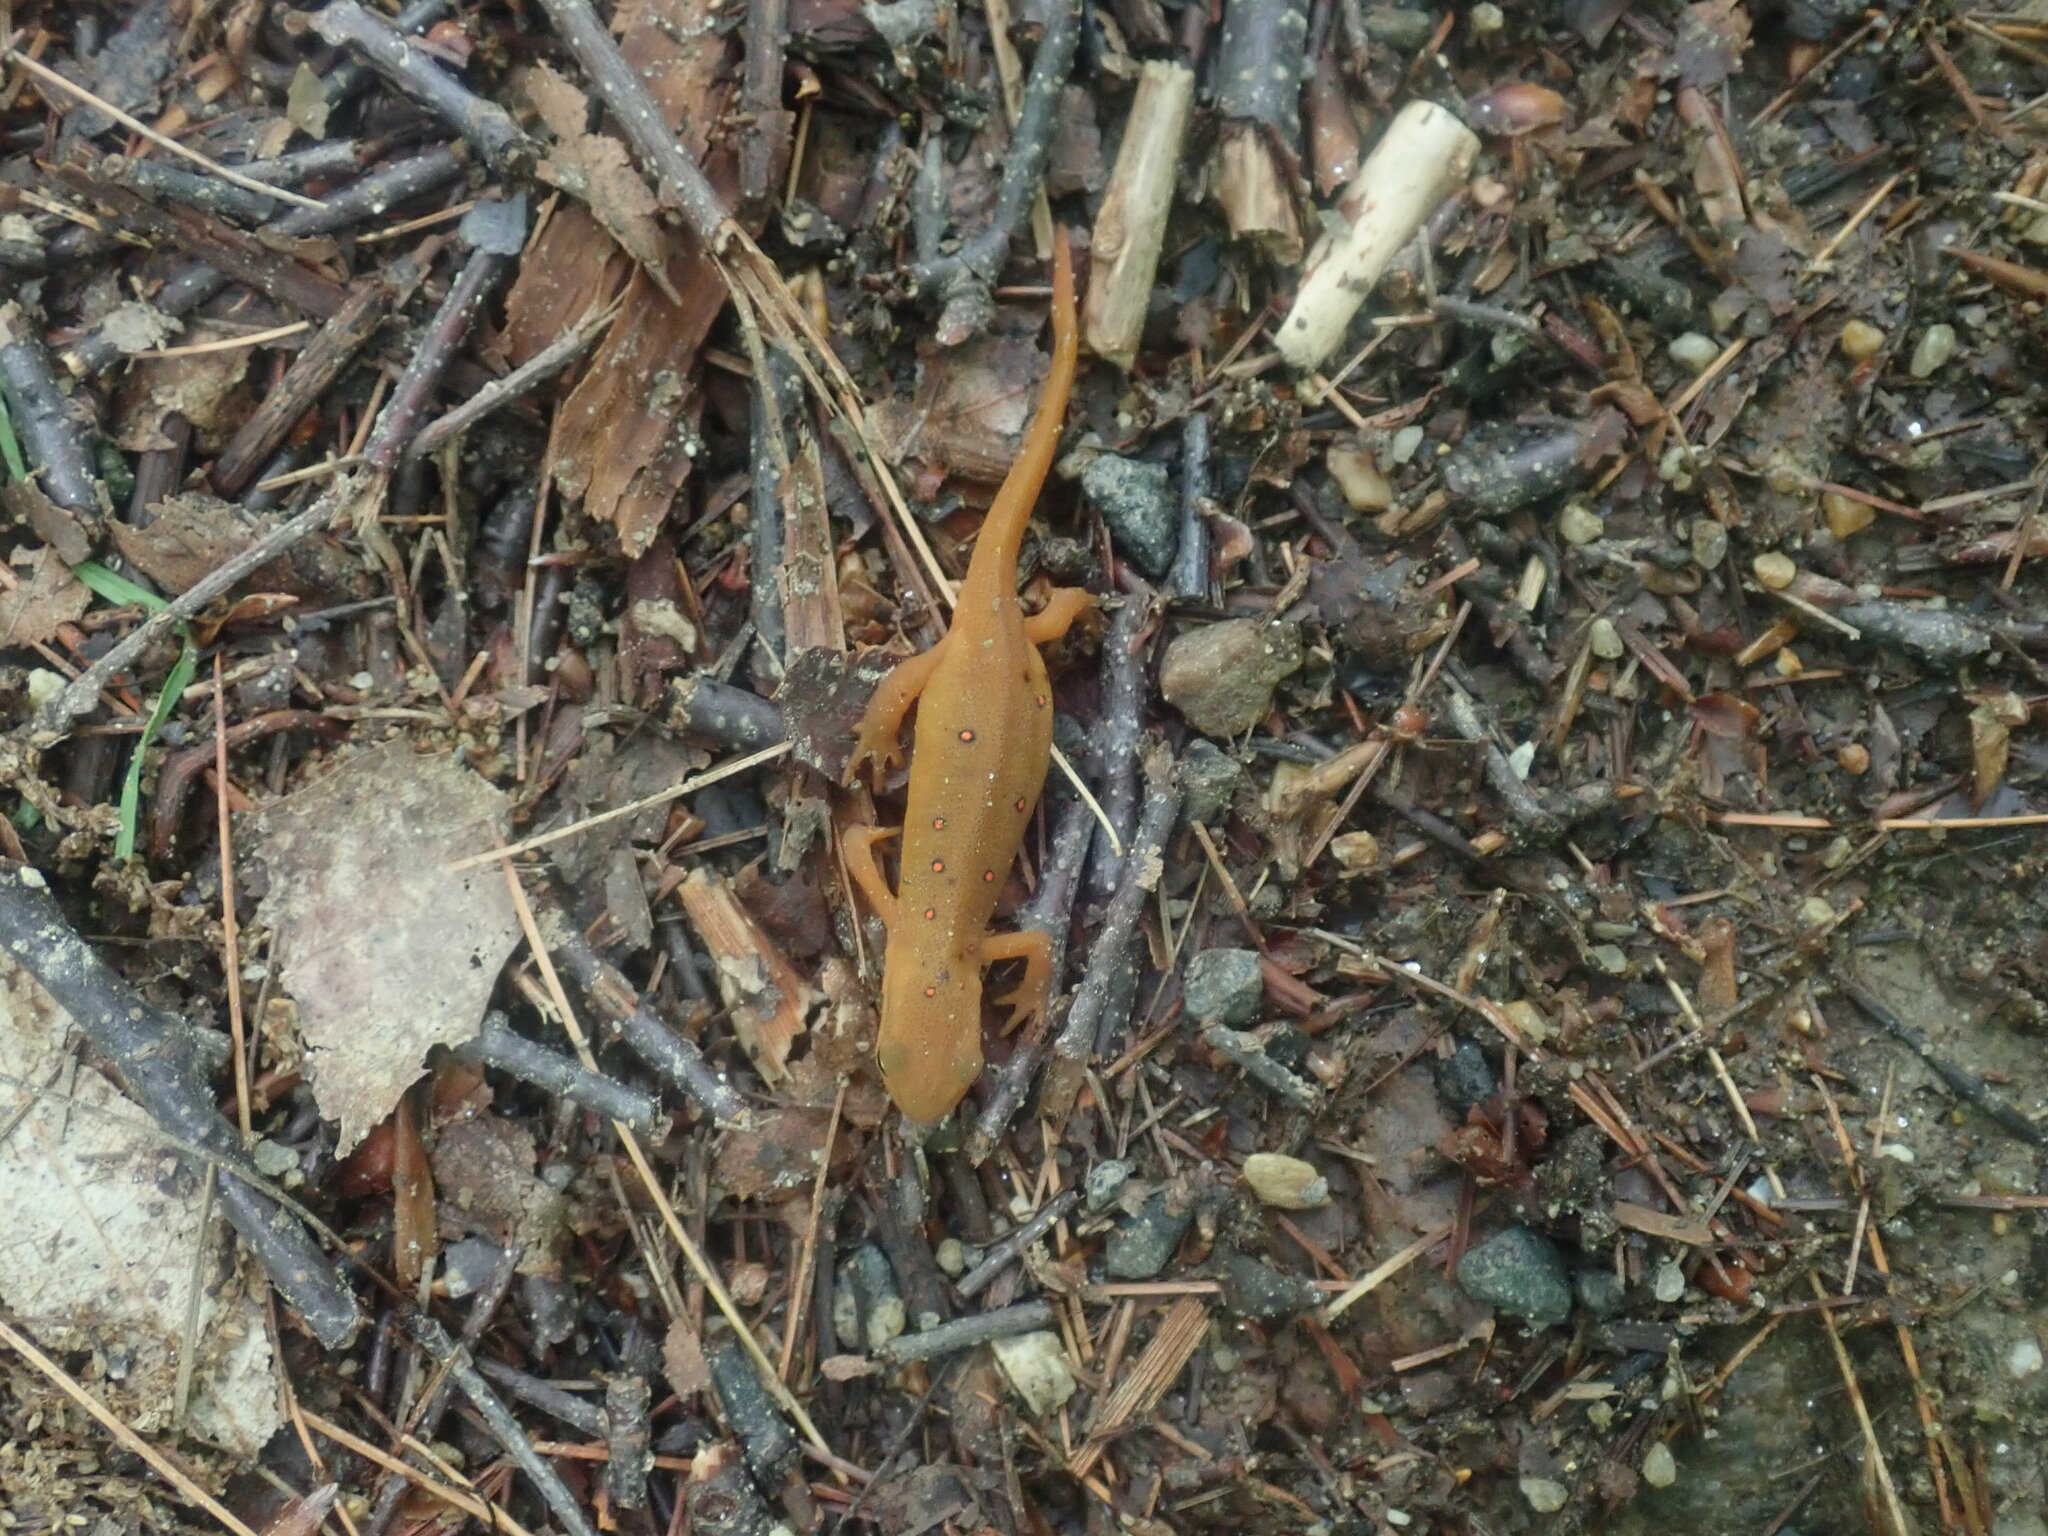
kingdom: Animalia
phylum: Chordata
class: Amphibia
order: Caudata
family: Salamandridae
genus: Notophthalmus
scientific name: Notophthalmus viridescens
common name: Eastern newt
